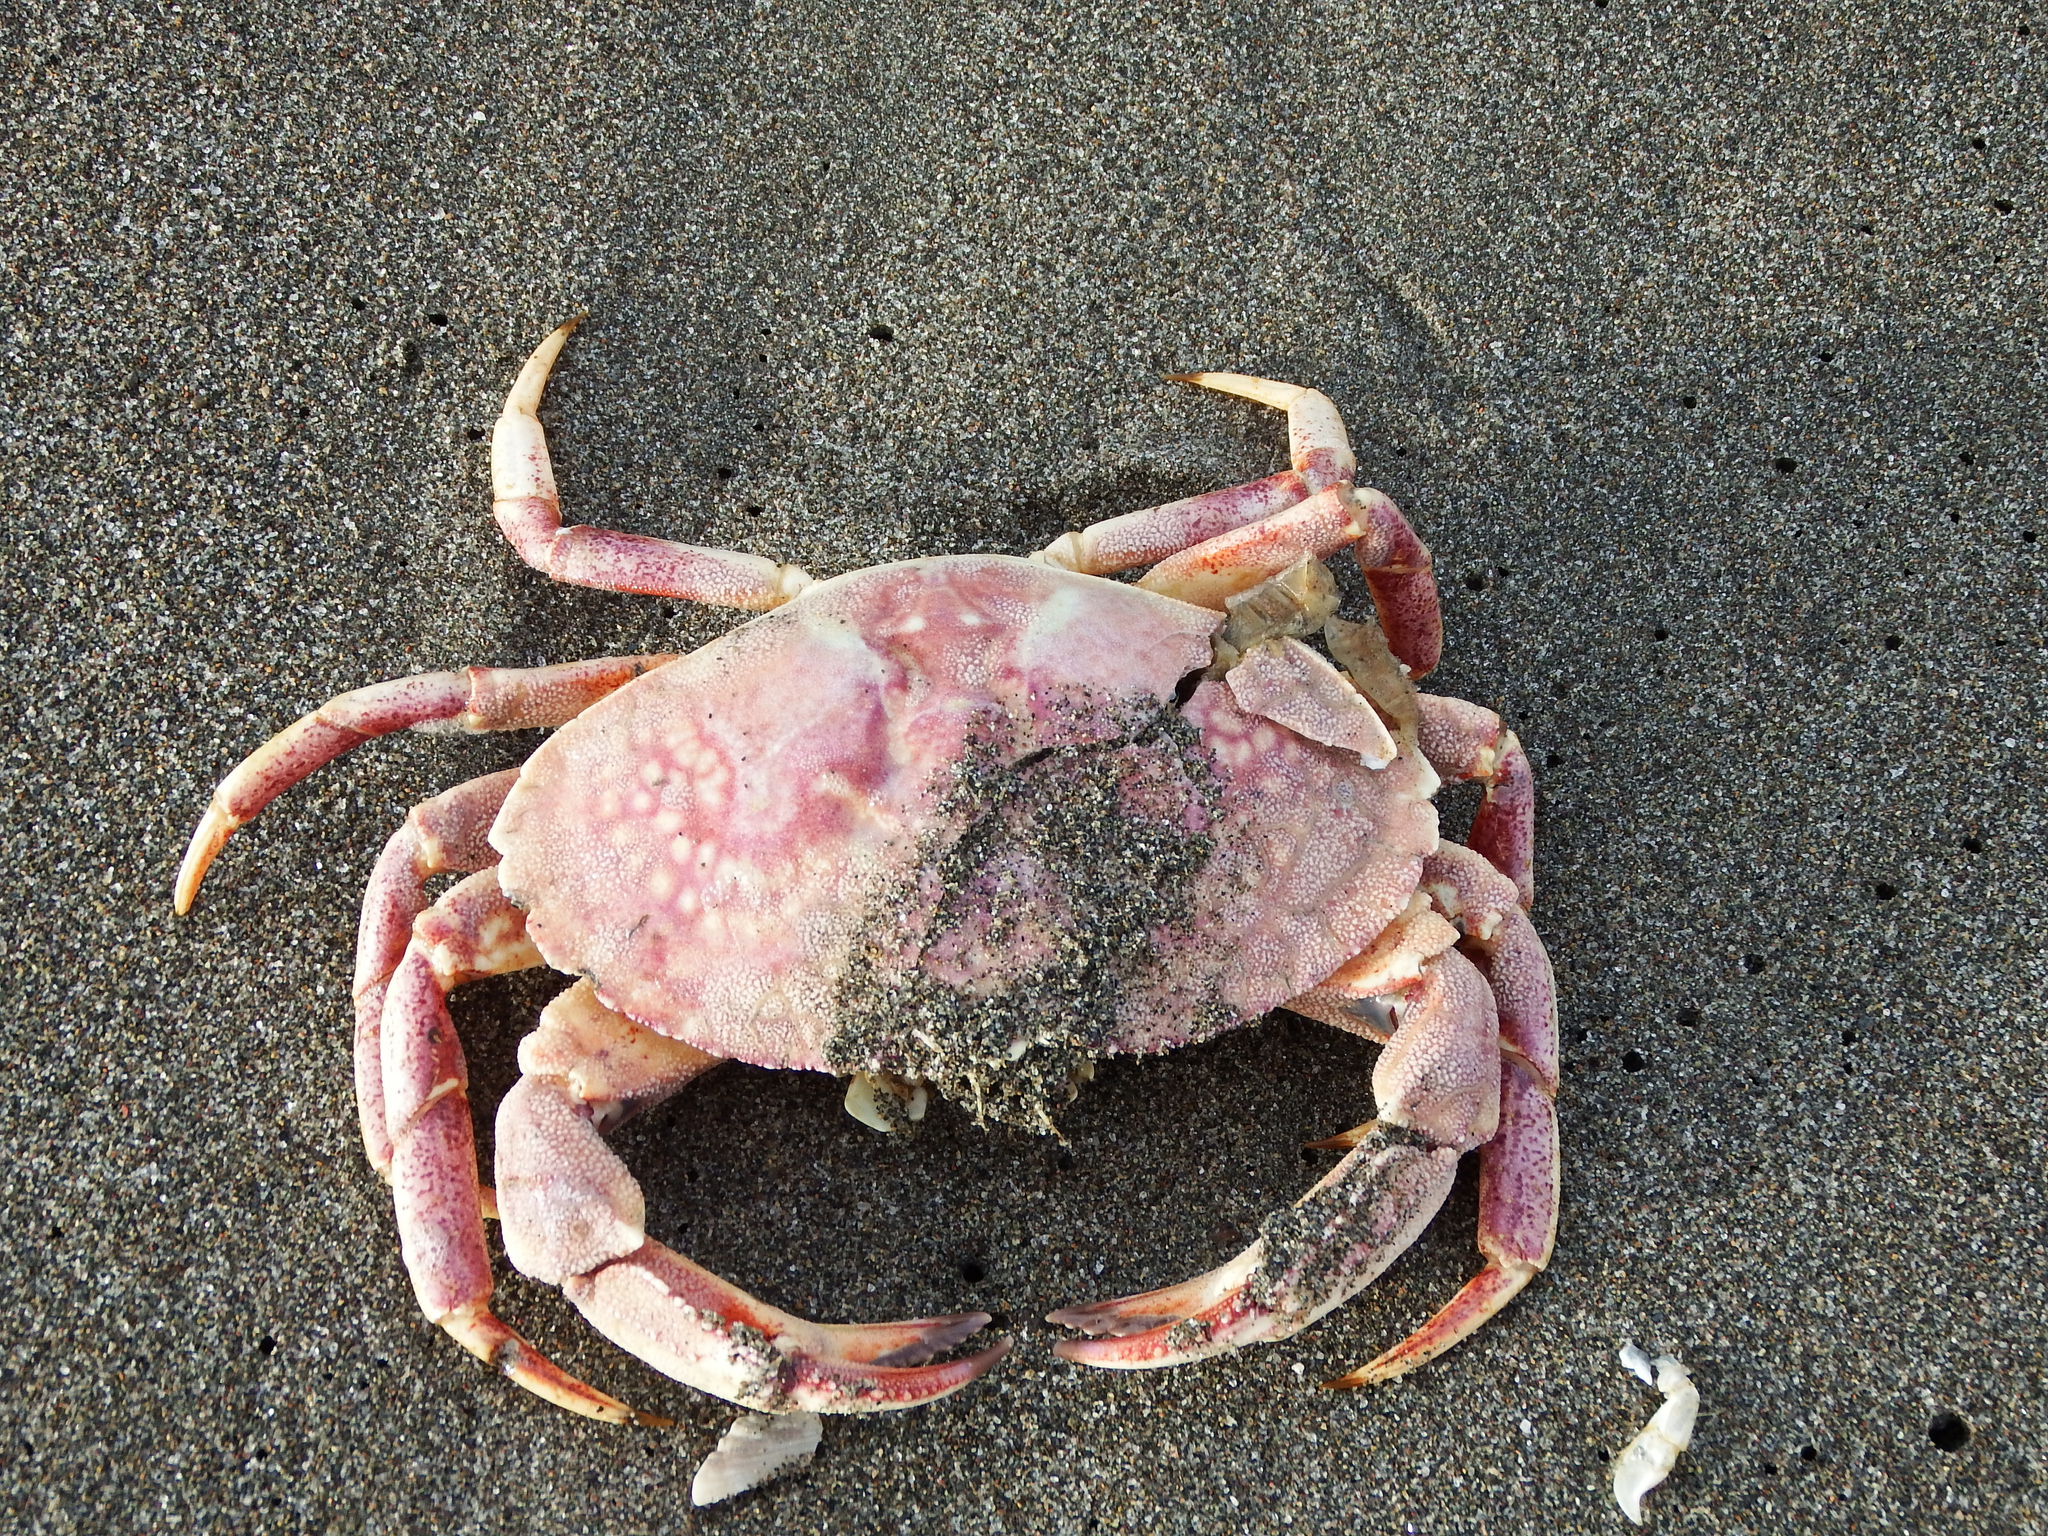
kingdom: Animalia
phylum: Arthropoda
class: Malacostraca
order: Decapoda
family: Cancridae
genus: Cancer
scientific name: Cancer plebejus
